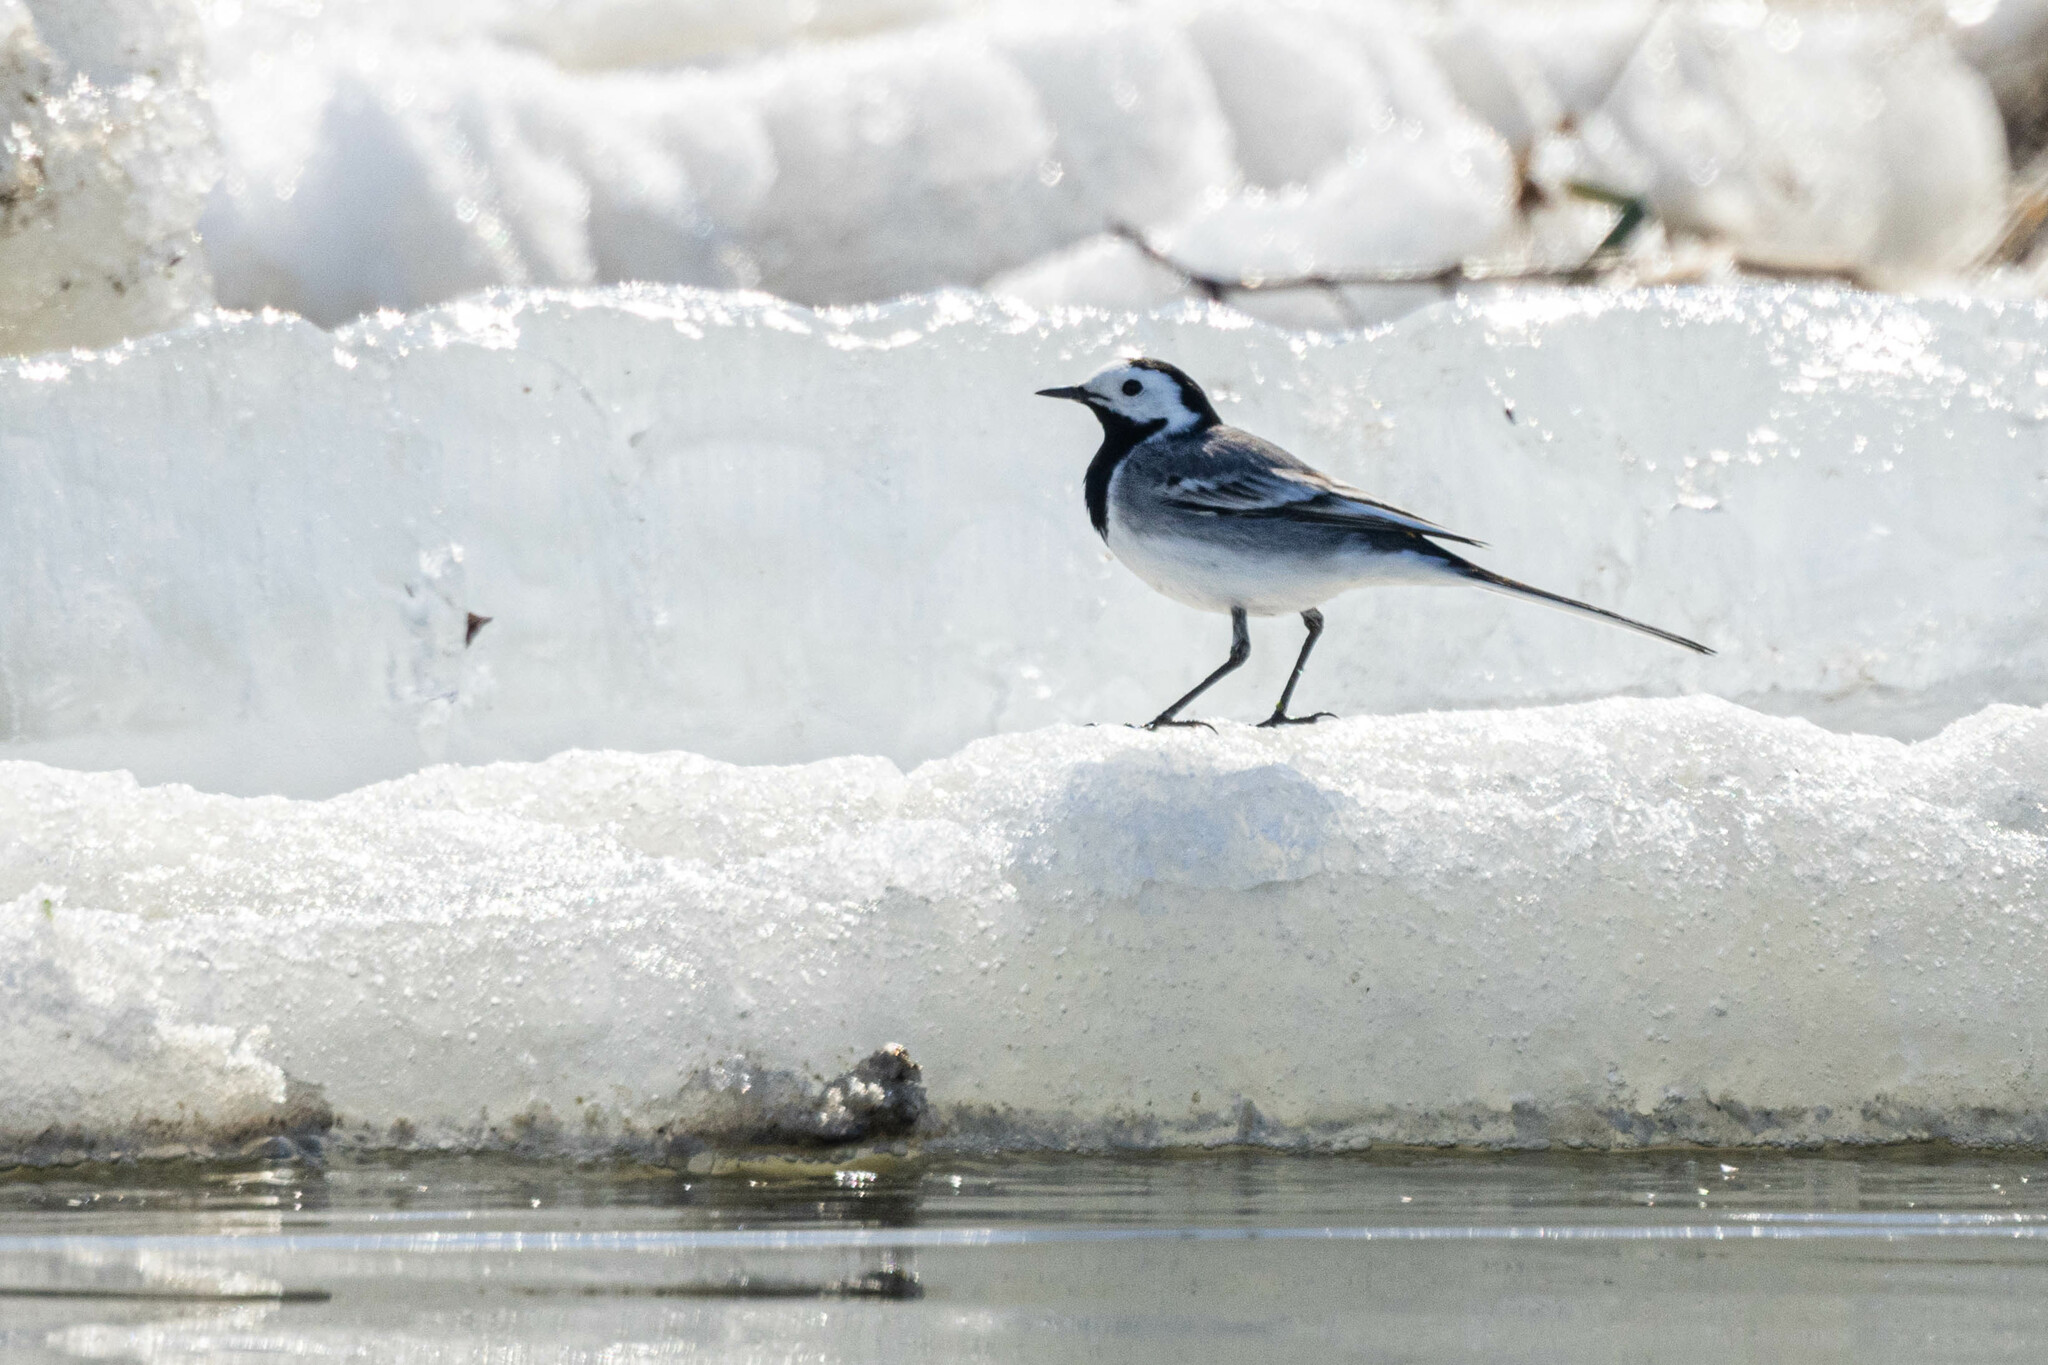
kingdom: Animalia
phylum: Chordata
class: Aves
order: Passeriformes
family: Motacillidae
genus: Motacilla
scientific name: Motacilla alba
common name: White wagtail
